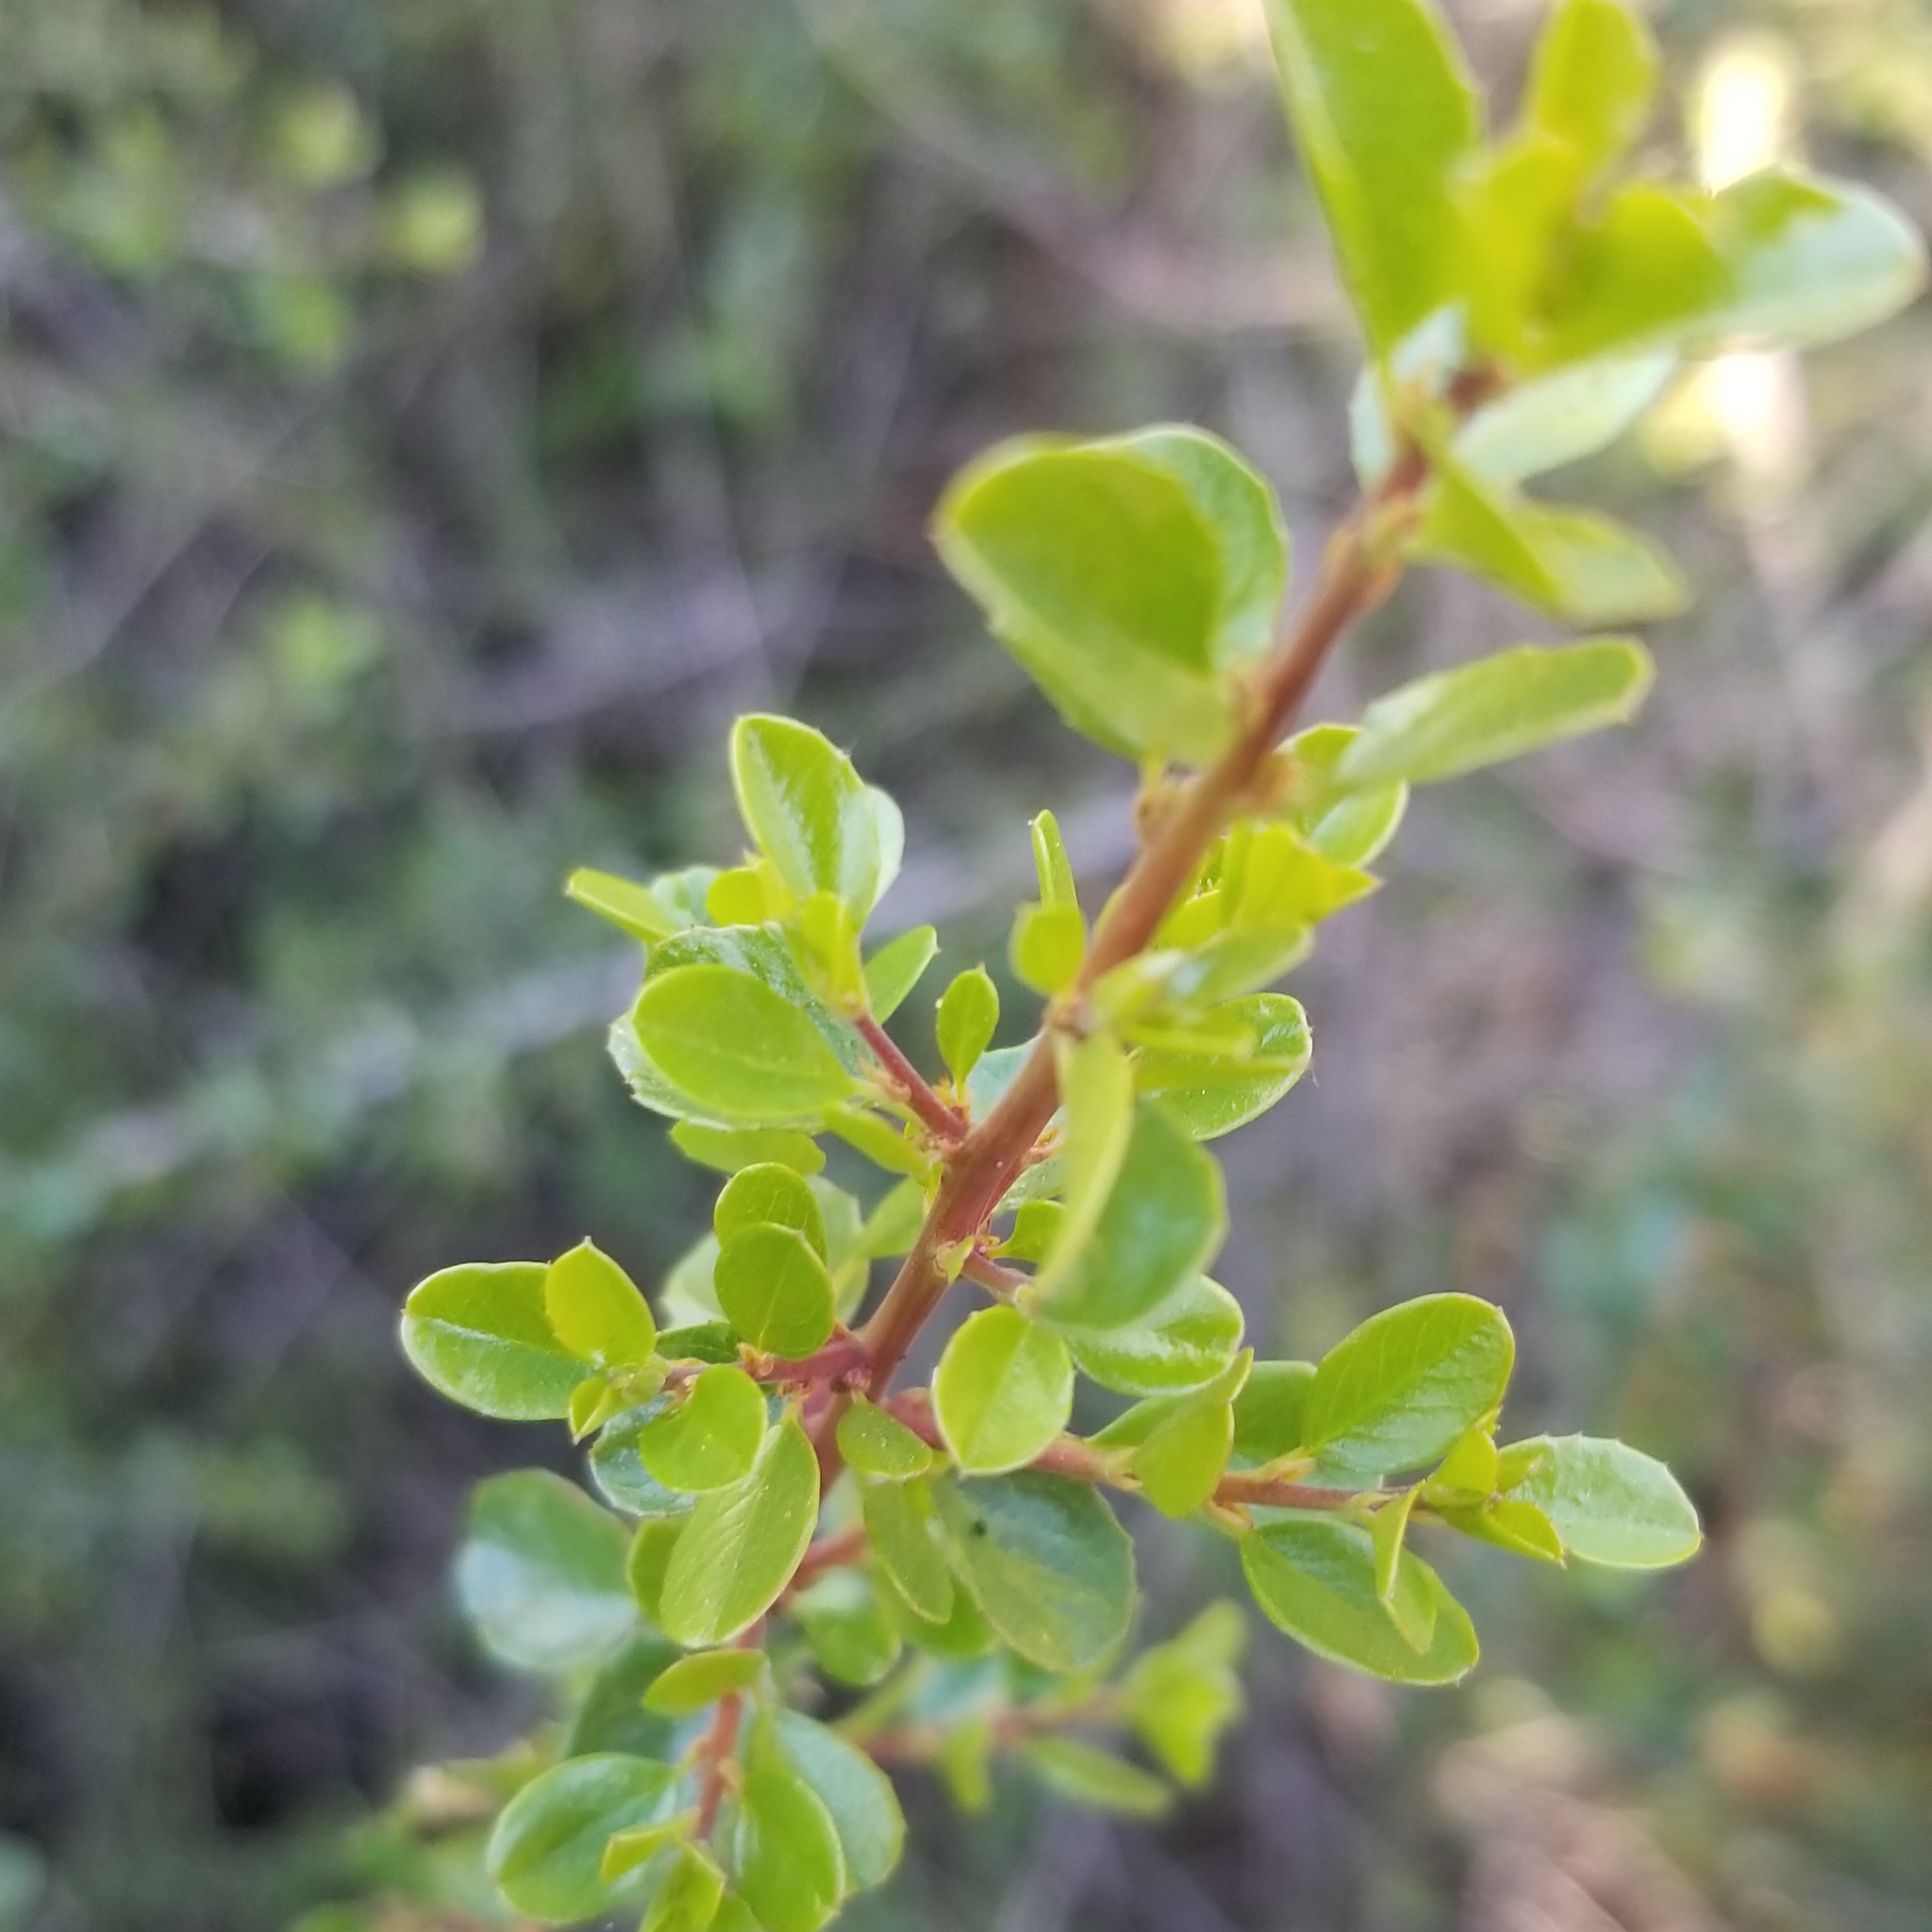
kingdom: Plantae
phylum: Tracheophyta
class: Magnoliopsida
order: Rosales
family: Rhamnaceae
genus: Endotropis
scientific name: Endotropis crocea
